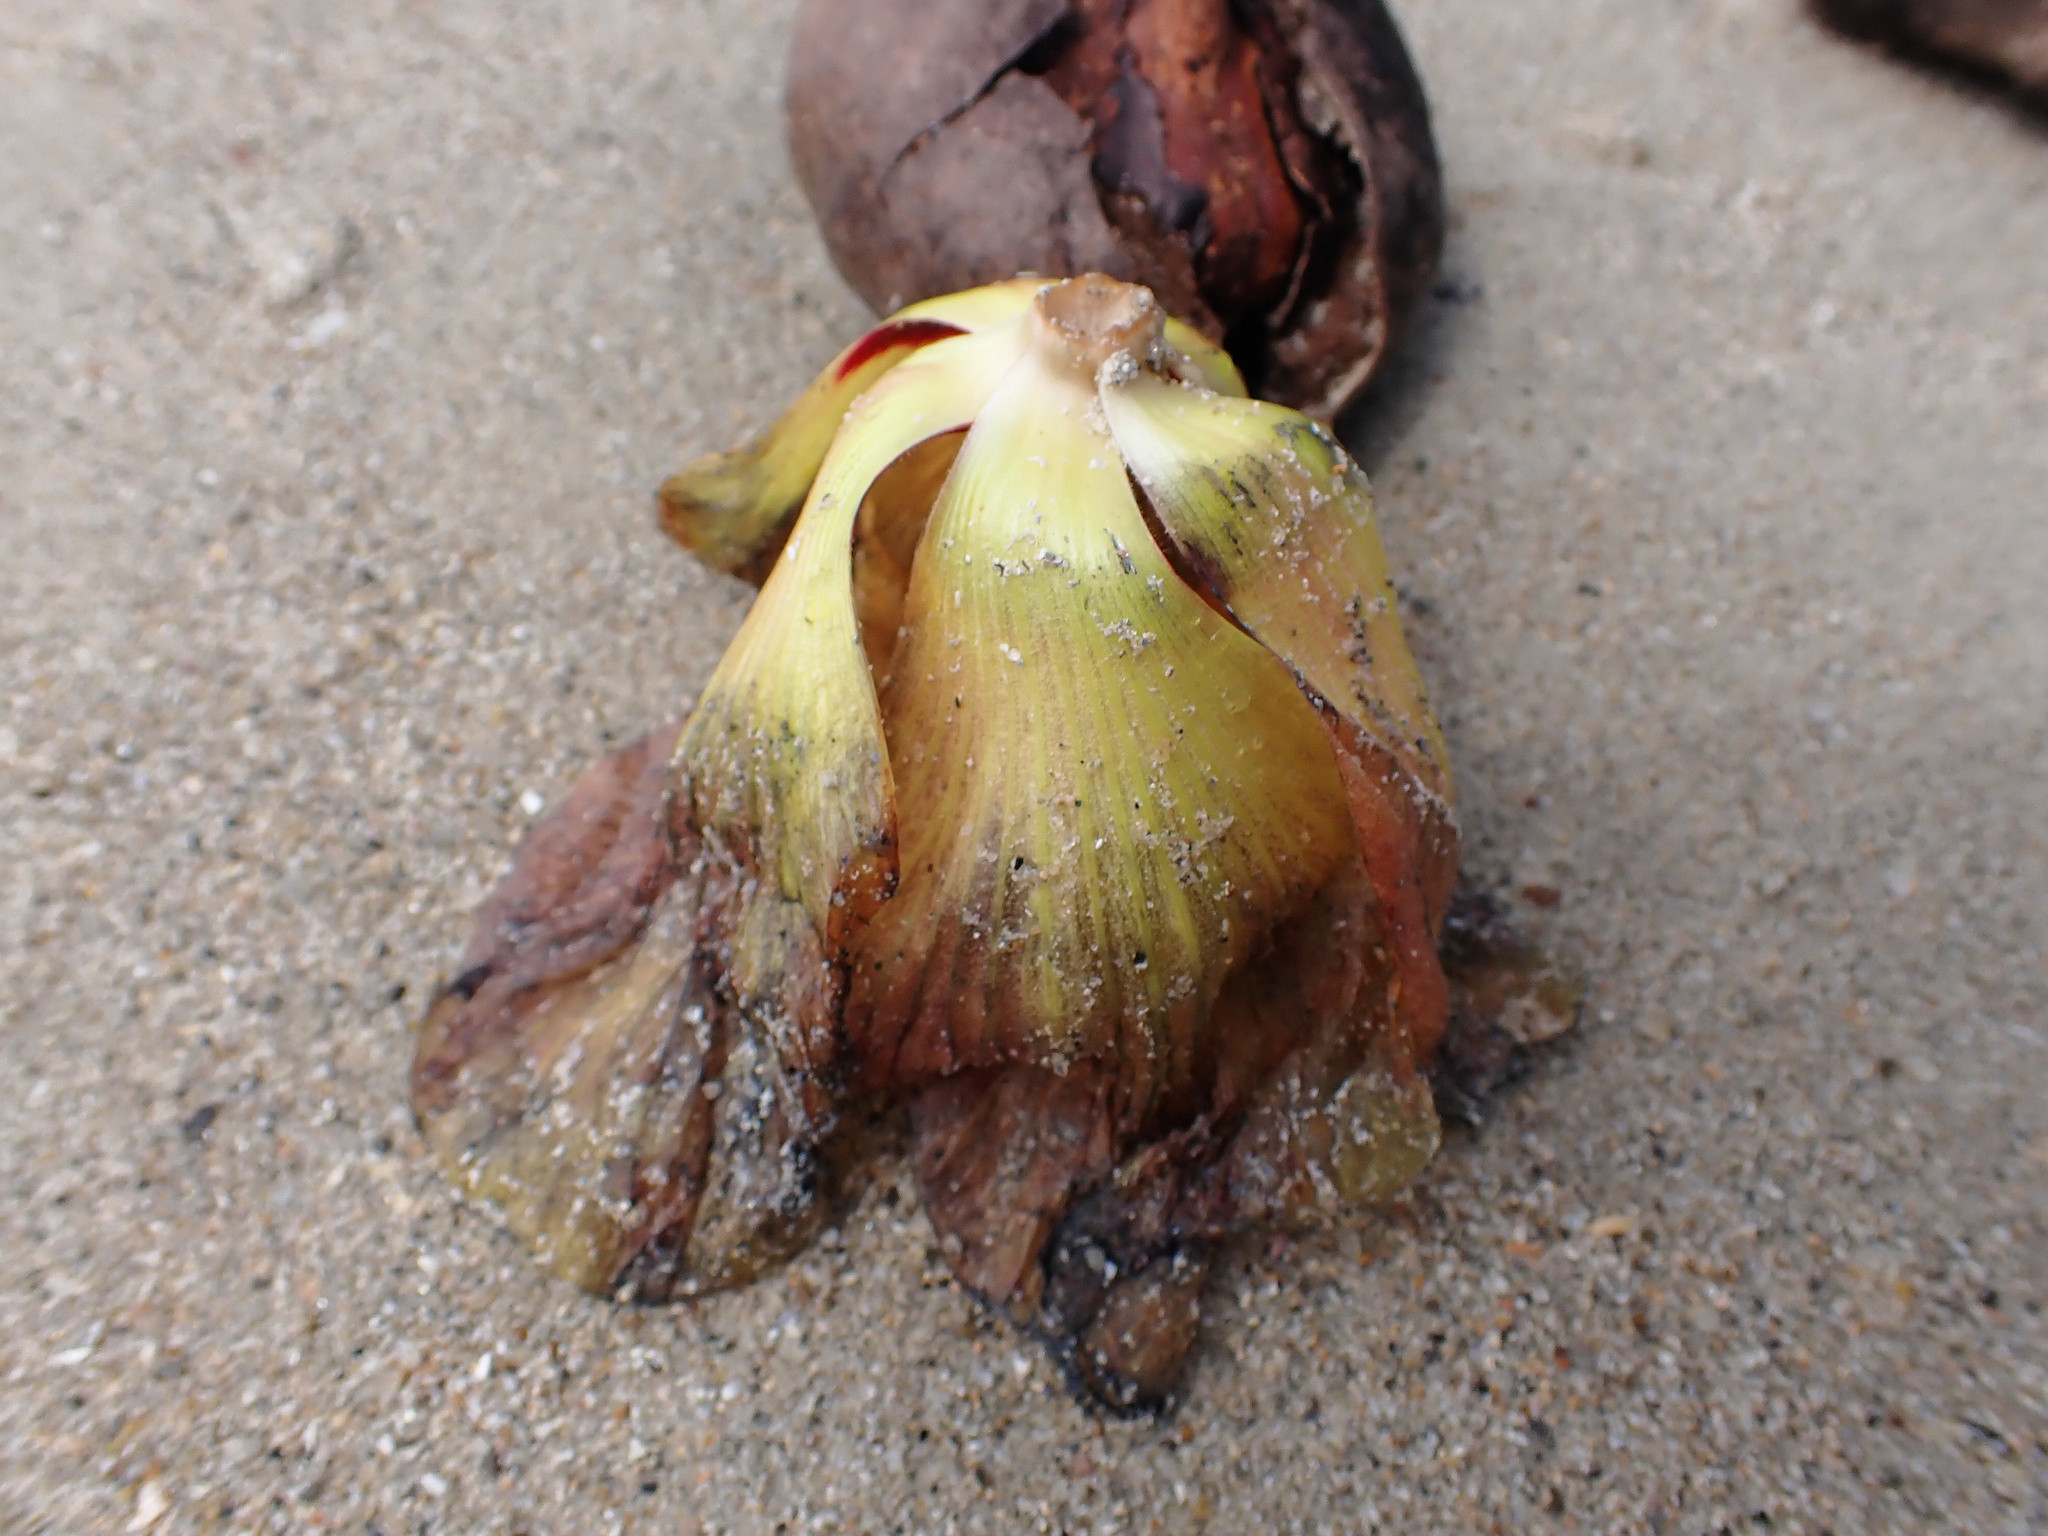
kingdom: Plantae
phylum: Tracheophyta
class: Magnoliopsida
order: Malvales
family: Malvaceae
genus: Talipariti
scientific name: Talipariti tiliaceum
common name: Sea hibiscus
